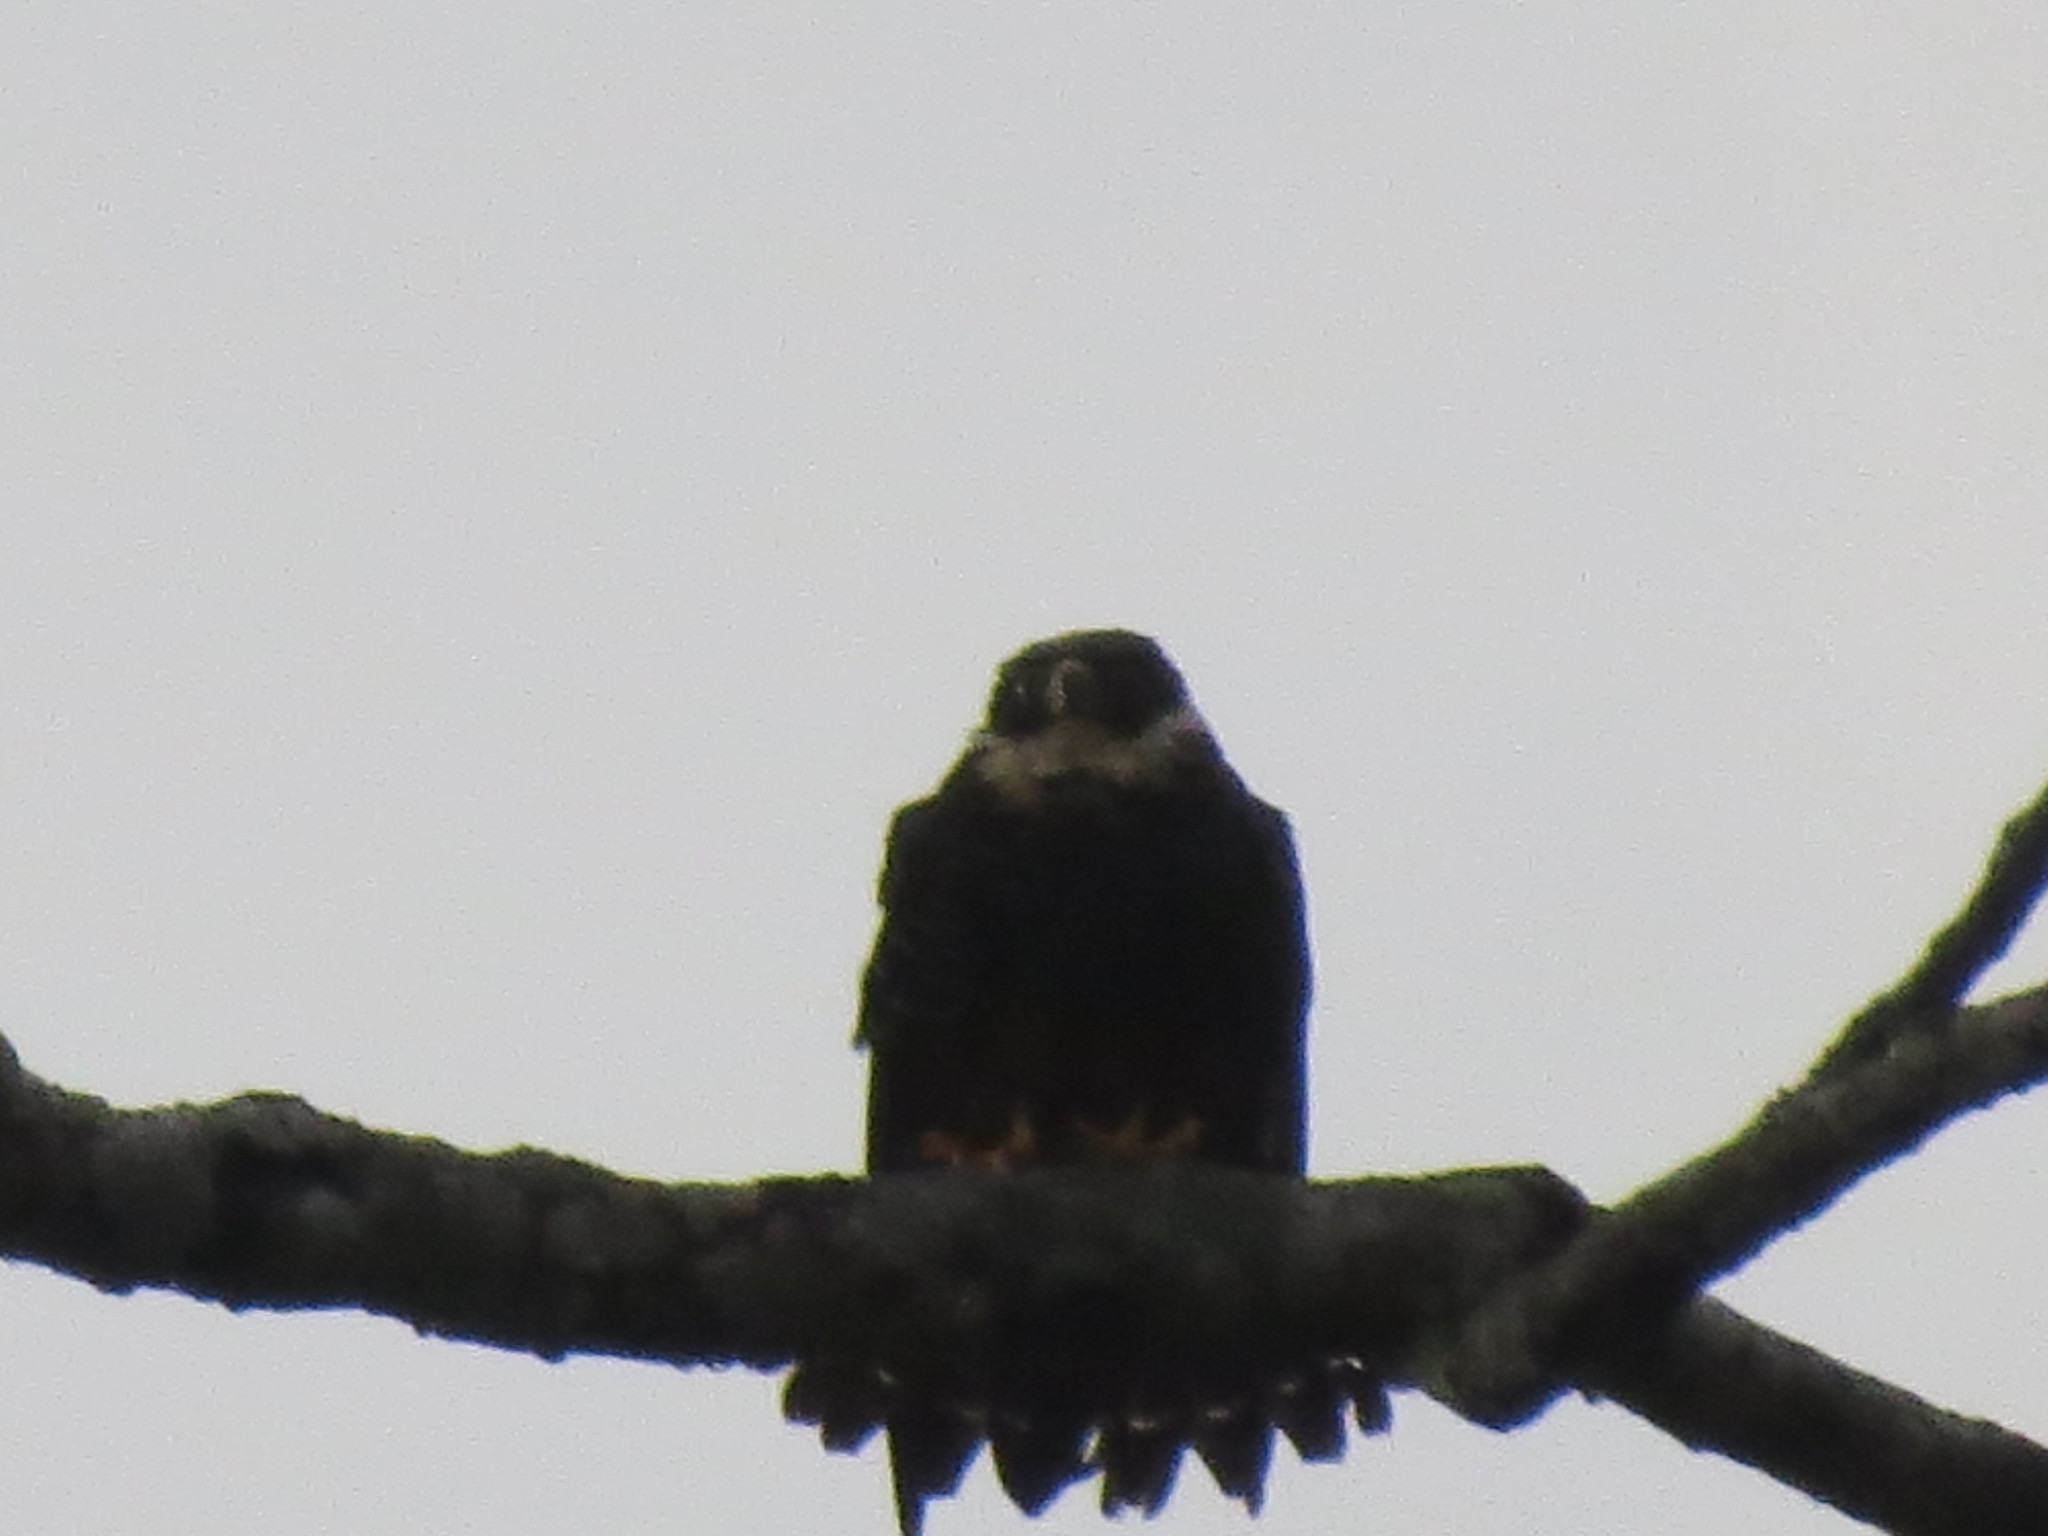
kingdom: Animalia
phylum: Chordata
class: Aves
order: Falconiformes
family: Falconidae
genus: Falco
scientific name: Falco rufigularis
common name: Bat falcon
